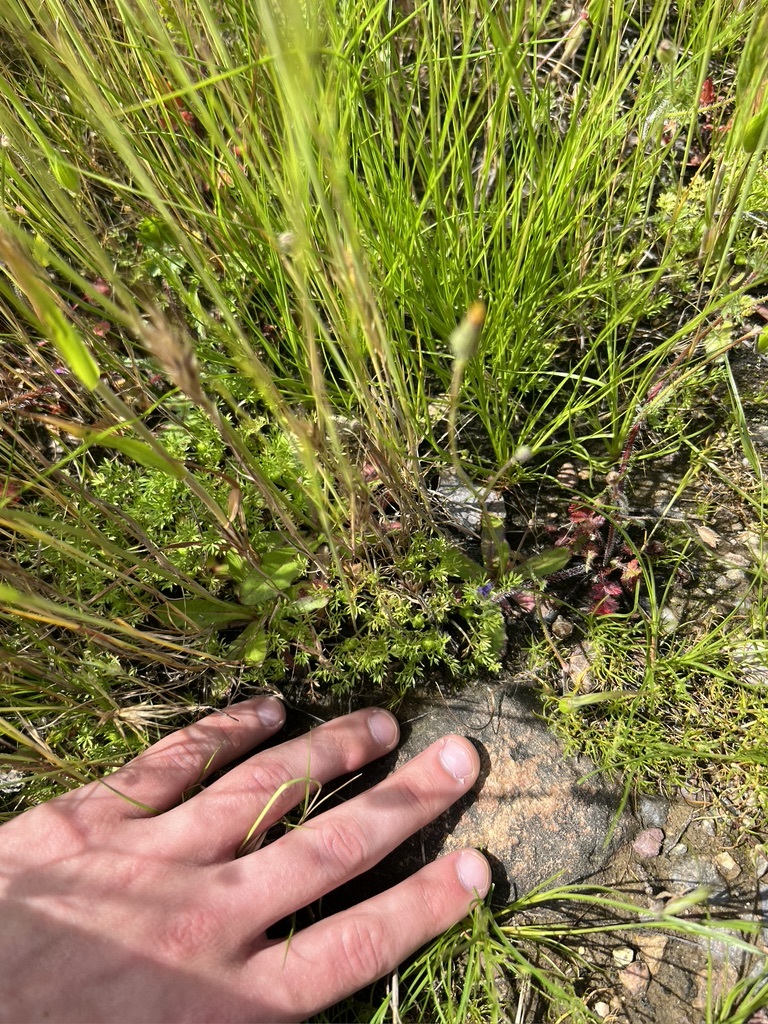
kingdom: Plantae
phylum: Tracheophyta
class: Magnoliopsida
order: Asterales
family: Asteraceae
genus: Soliva
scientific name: Soliva sessilis
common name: Field burrweed
